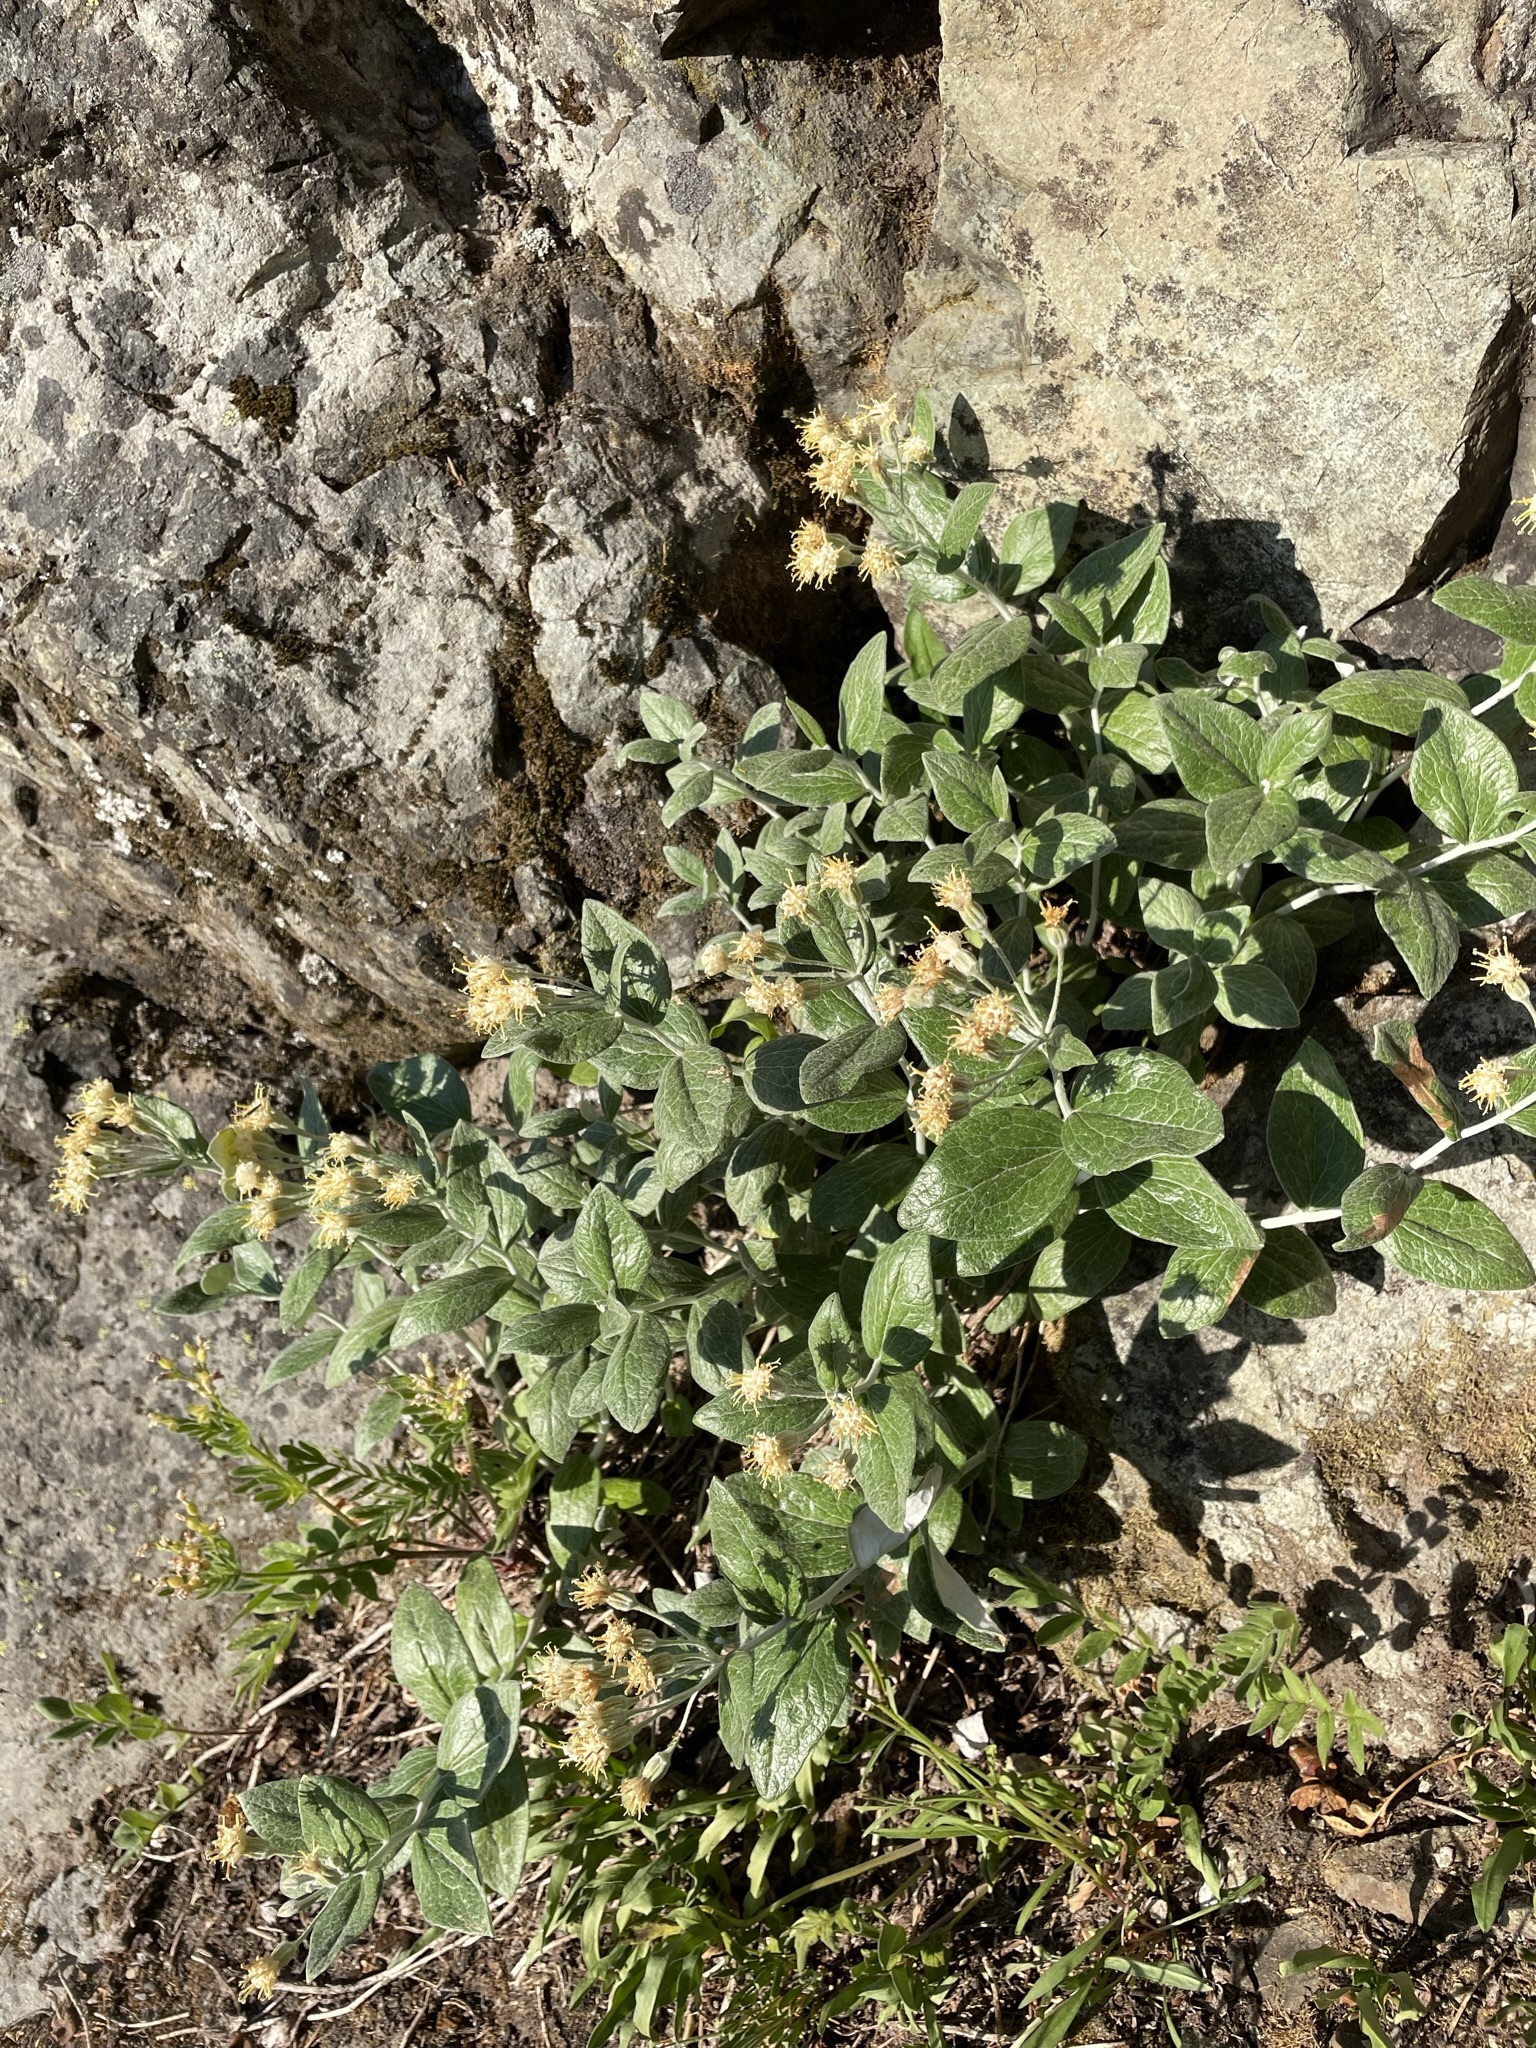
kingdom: Plantae
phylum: Tracheophyta
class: Magnoliopsida
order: Asterales
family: Asteraceae
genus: Luina
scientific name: Luina hypoleuca
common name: Little-leaved luina
